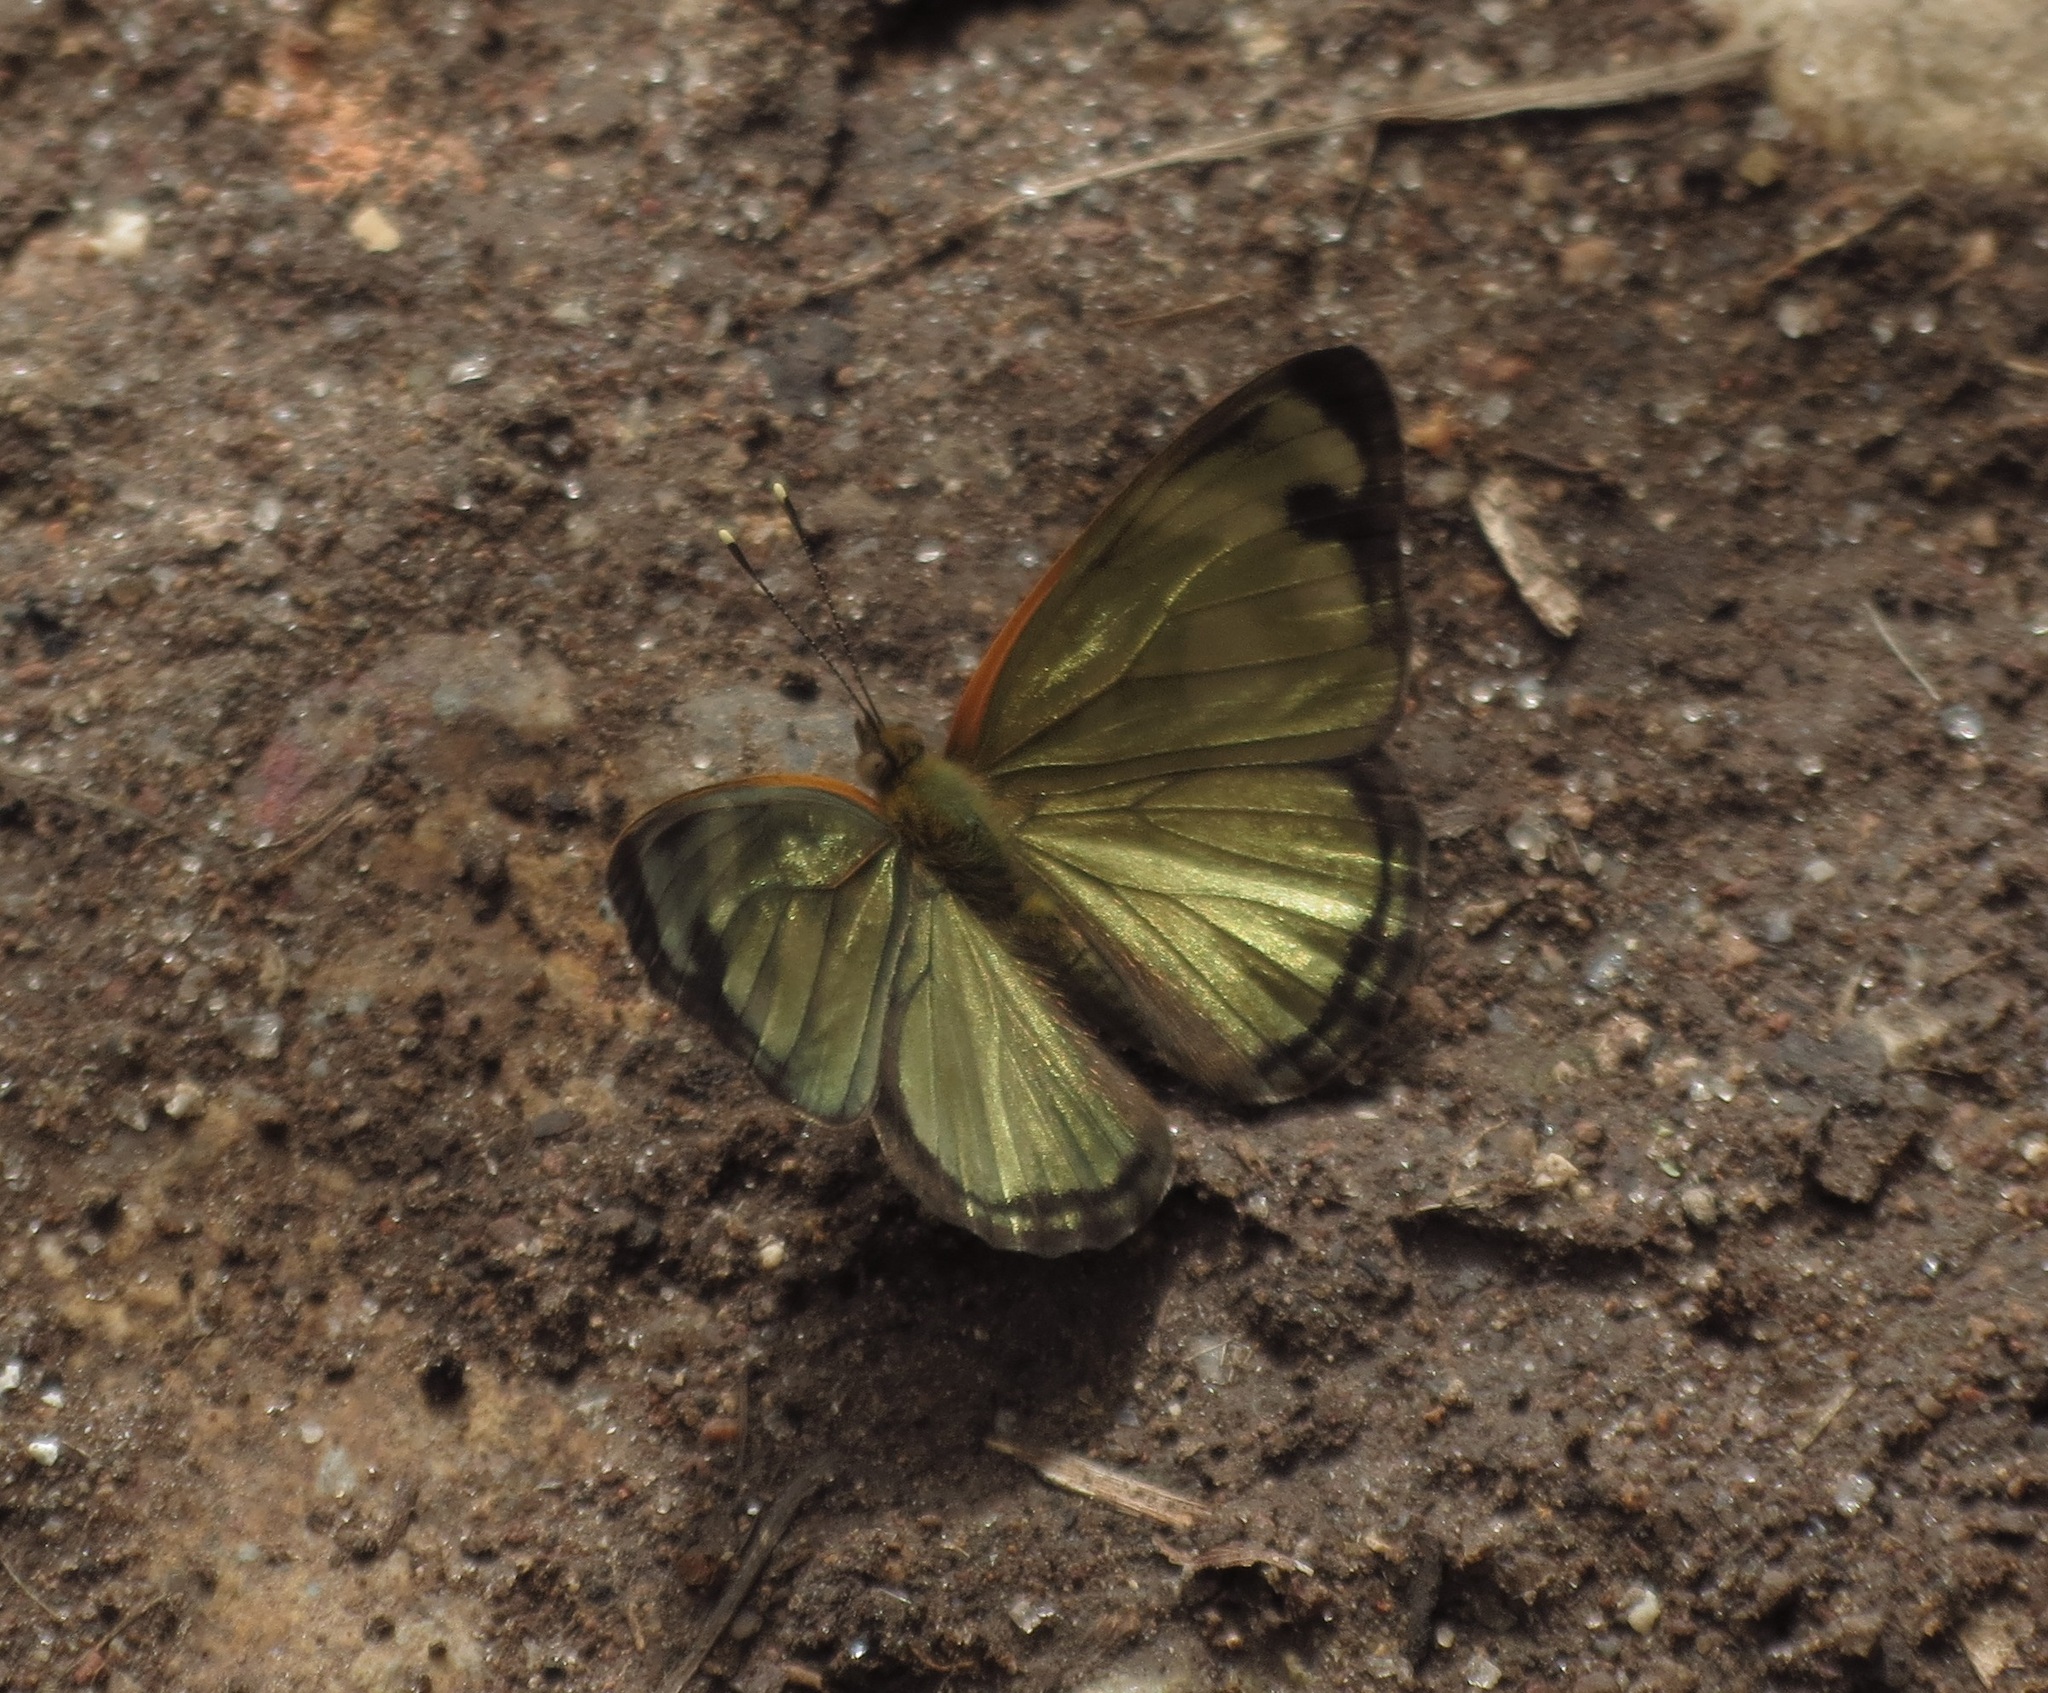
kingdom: Animalia
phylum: Arthropoda
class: Insecta
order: Lepidoptera
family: Nymphalidae
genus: Dynamine
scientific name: Dynamine dyonis
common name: Blue-eyed sailor
